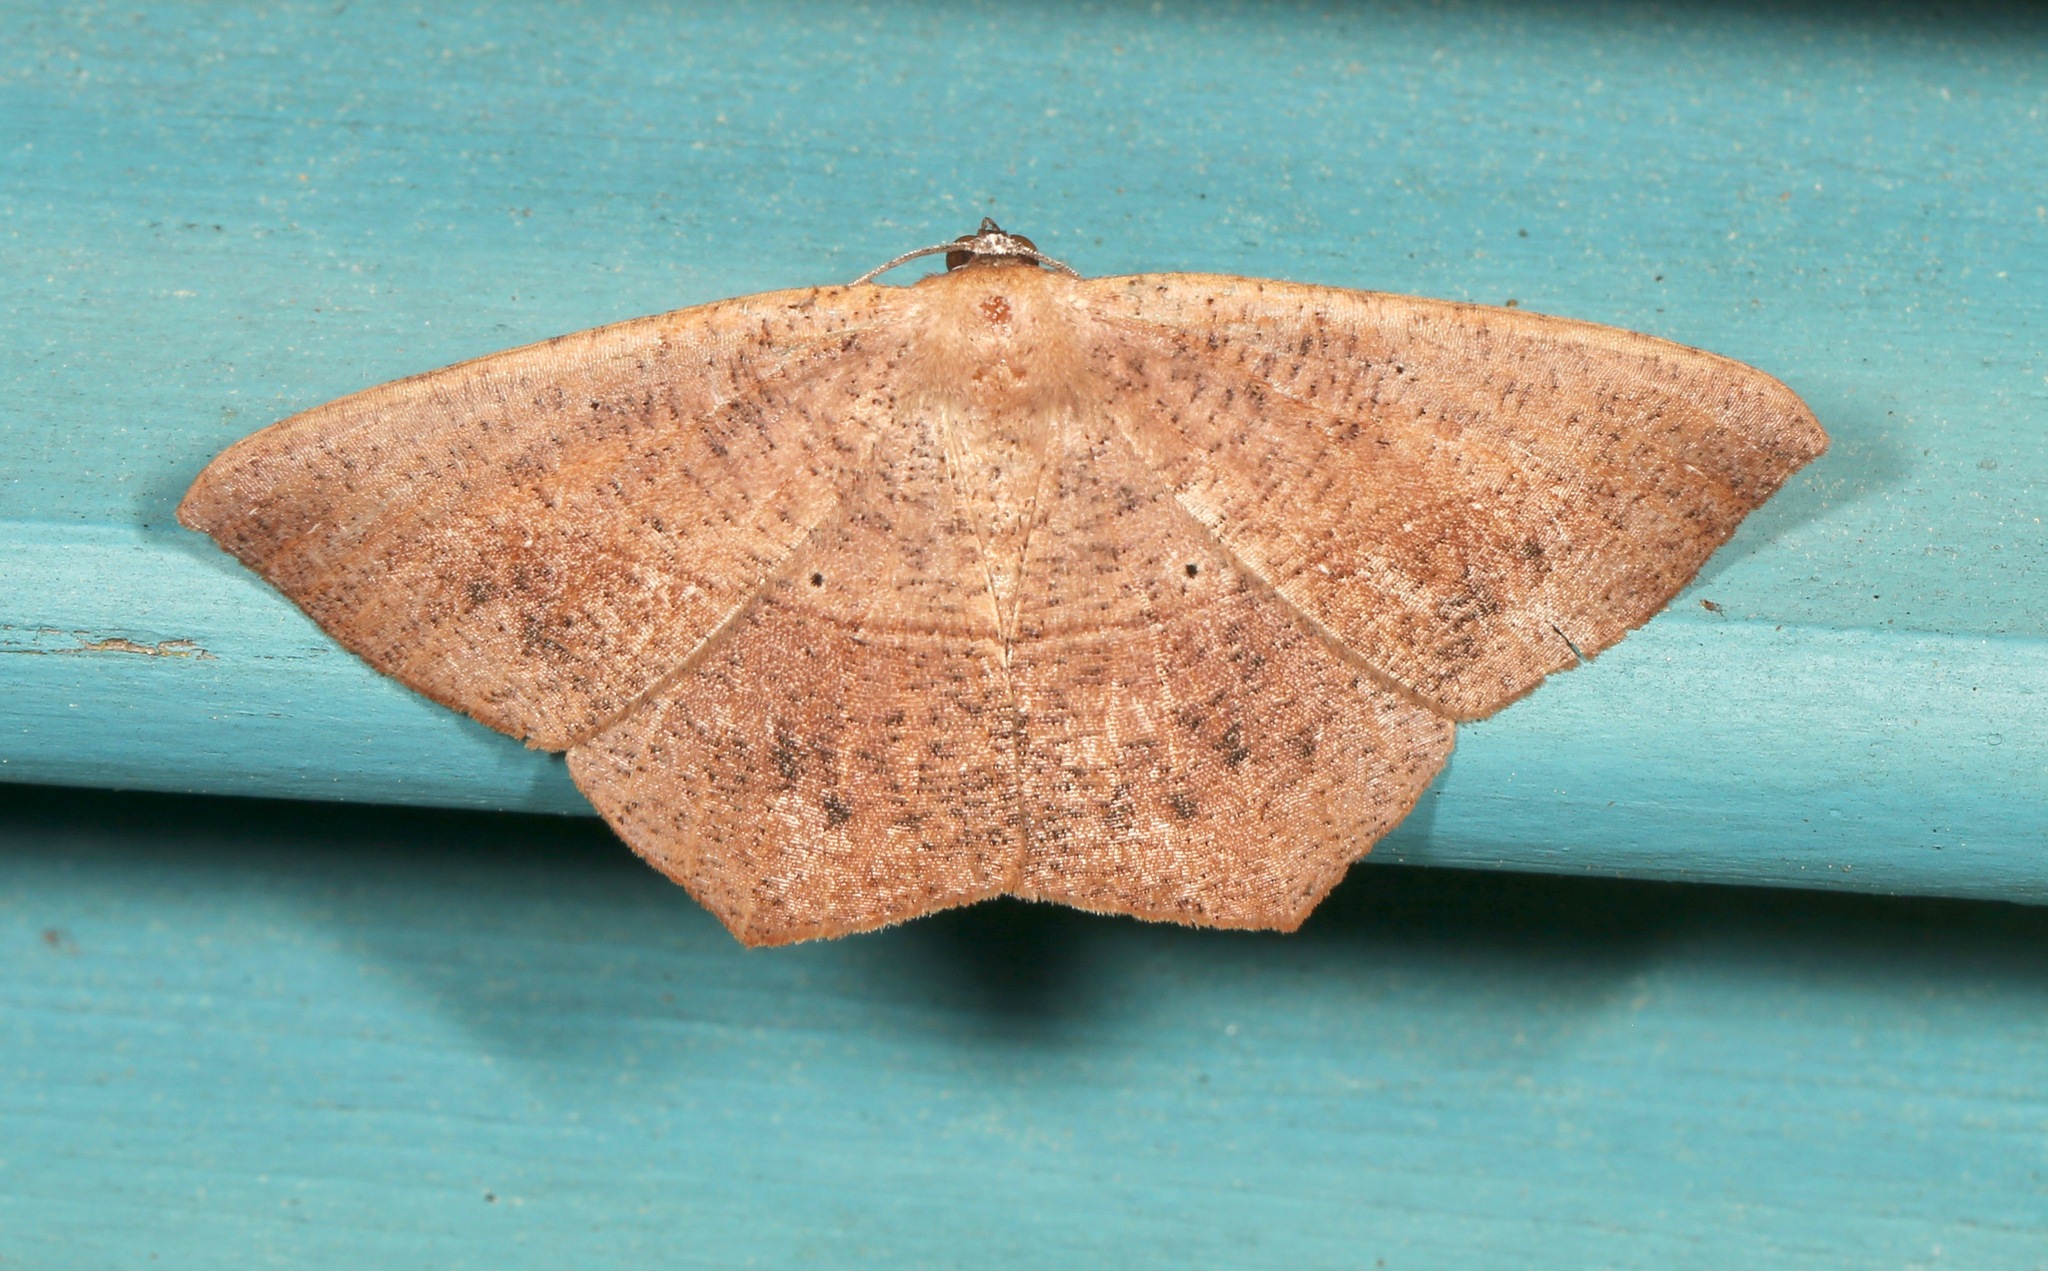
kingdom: Animalia
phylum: Arthropoda
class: Insecta
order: Lepidoptera
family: Geometridae
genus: Prochoerodes
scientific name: Prochoerodes lineola
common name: Large maple spanworm
